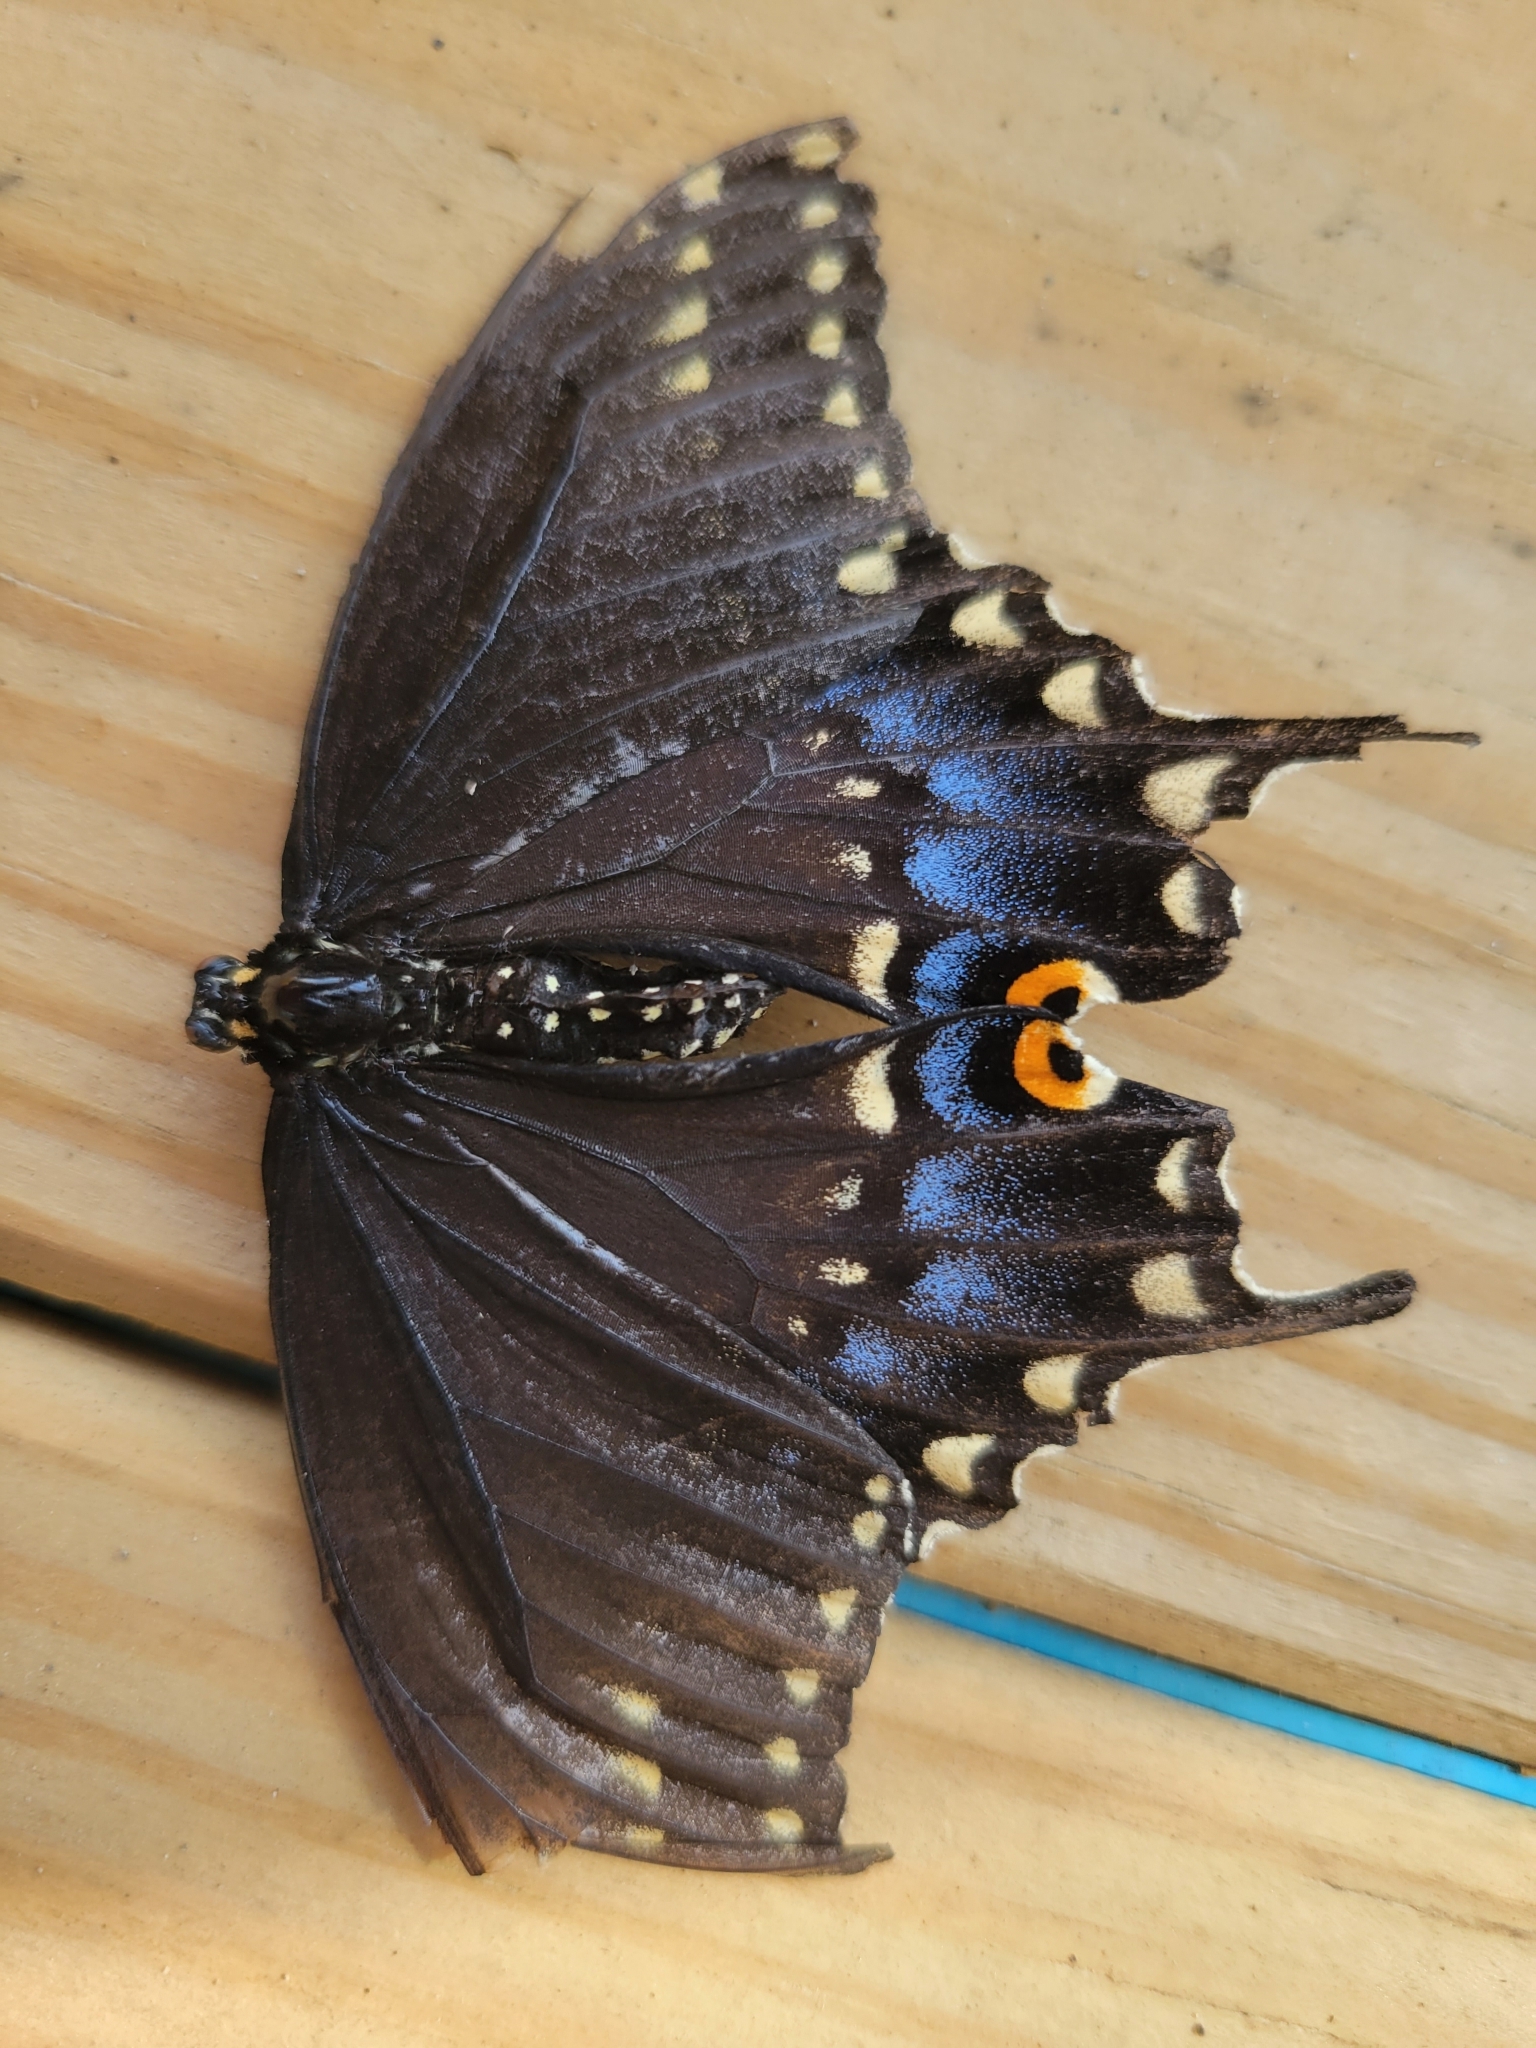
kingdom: Animalia
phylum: Arthropoda
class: Insecta
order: Lepidoptera
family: Papilionidae
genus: Papilio
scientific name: Papilio polyxenes
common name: Black swallowtail
